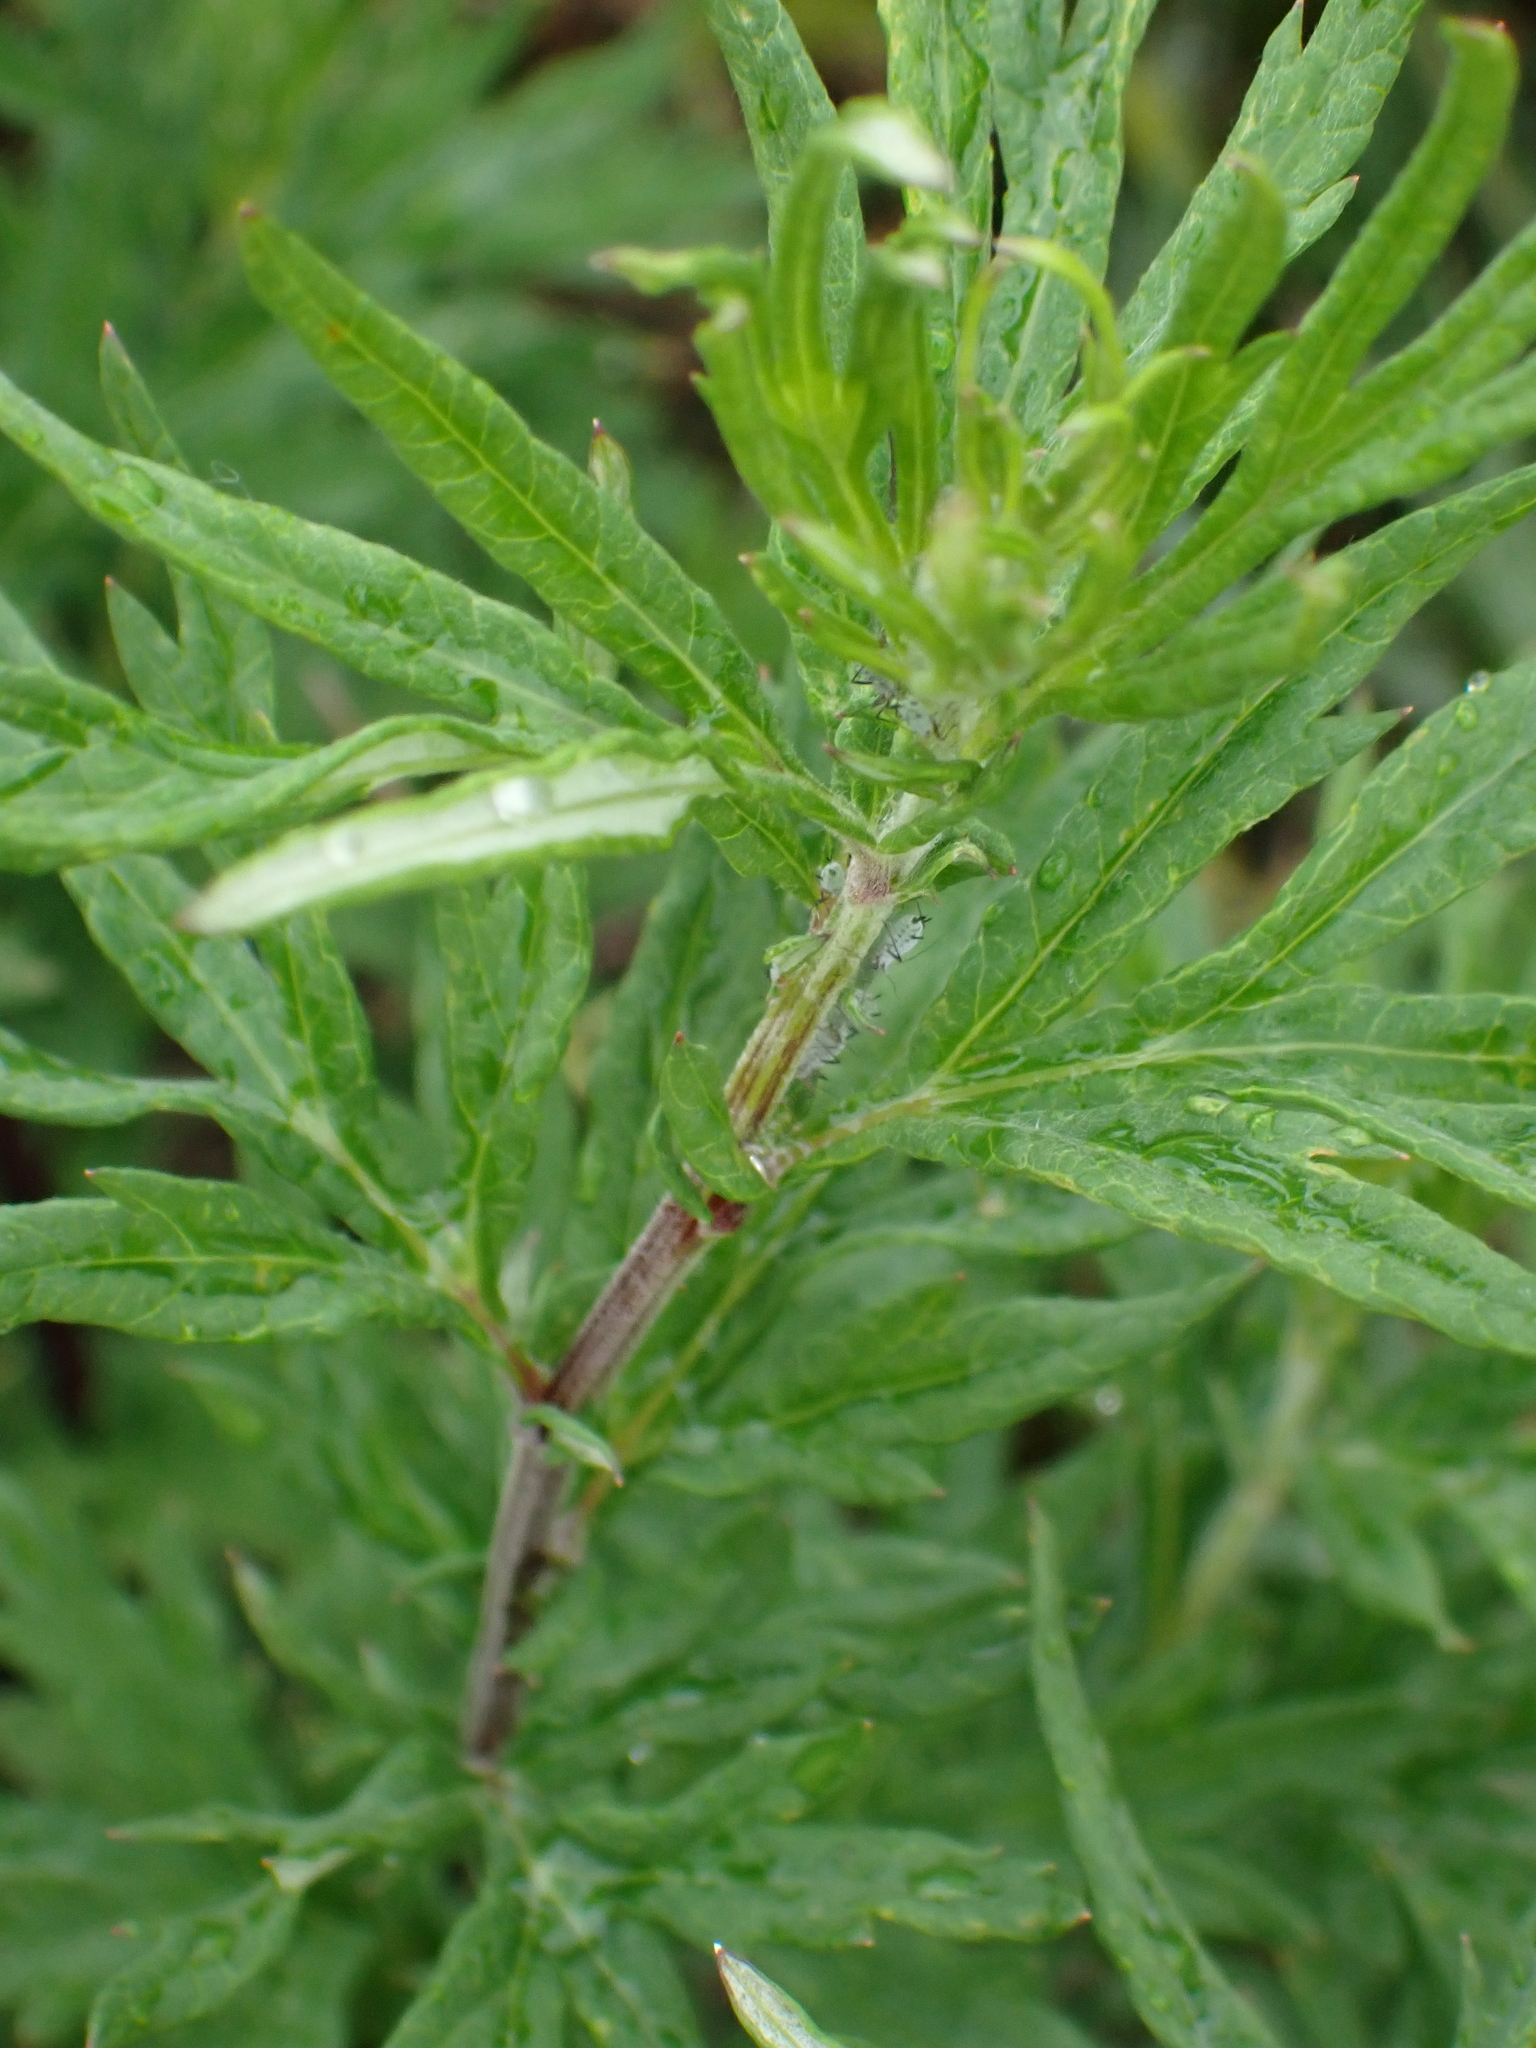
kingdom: Plantae
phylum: Tracheophyta
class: Magnoliopsida
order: Asterales
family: Asteraceae
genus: Artemisia
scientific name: Artemisia verlotiorum
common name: Chinese mugwort
